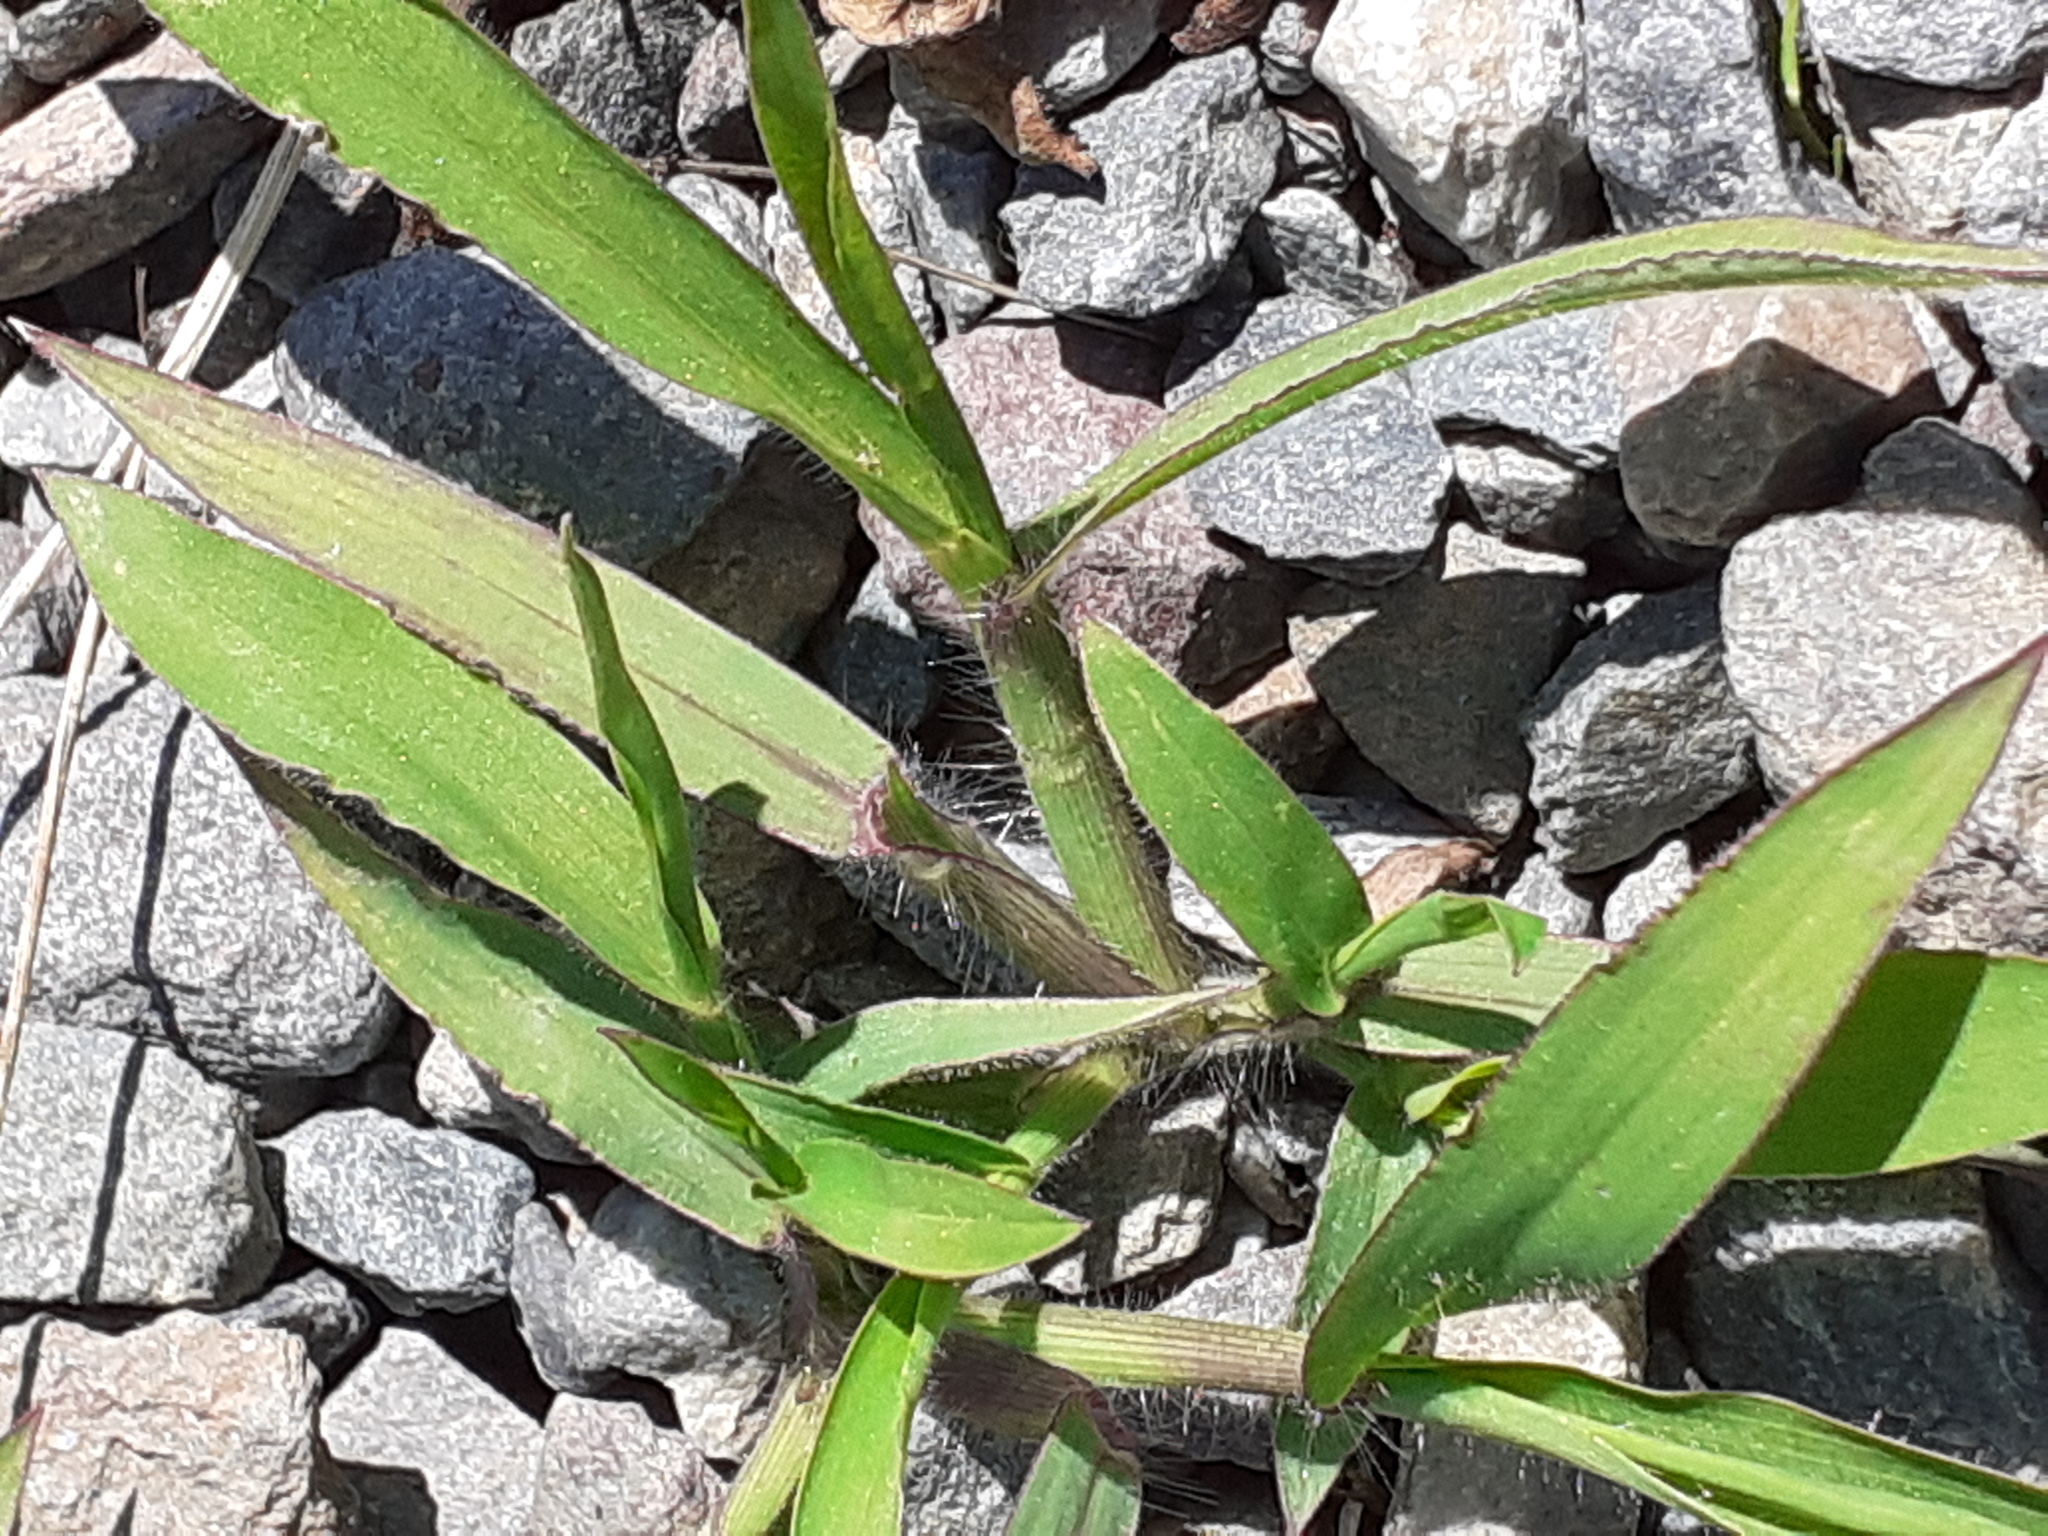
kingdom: Plantae
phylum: Tracheophyta
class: Liliopsida
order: Poales
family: Poaceae
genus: Digitaria
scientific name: Digitaria sanguinalis
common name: Hairy crabgrass
